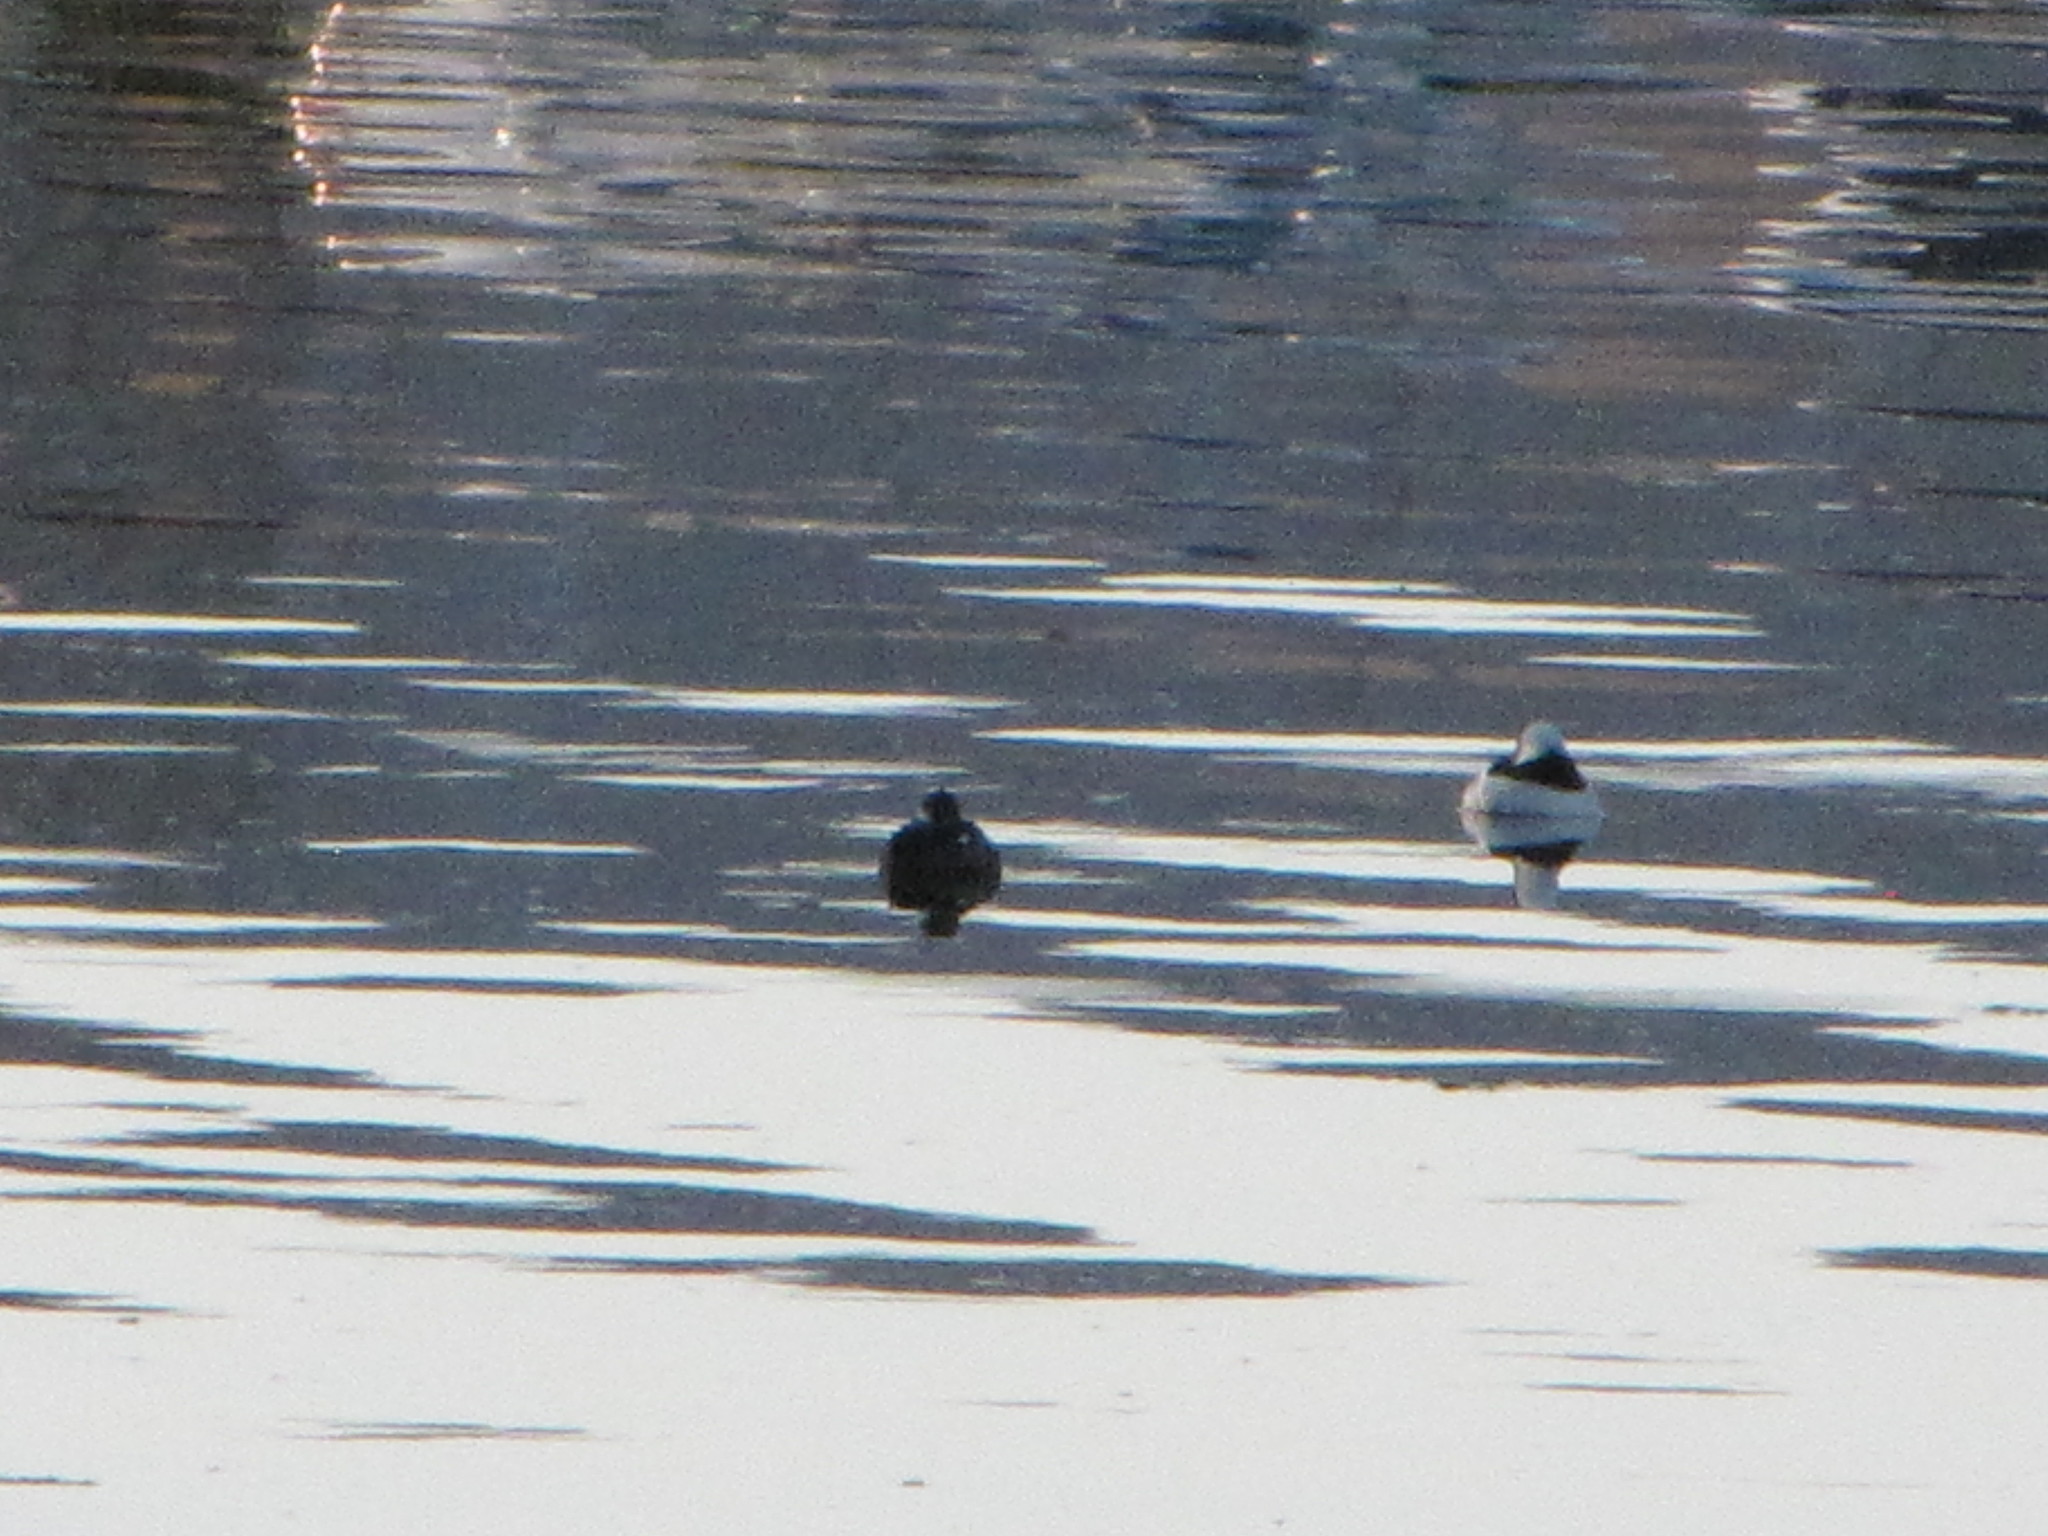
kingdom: Animalia
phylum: Chordata
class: Aves
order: Anseriformes
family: Anatidae
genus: Bucephala
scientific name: Bucephala albeola
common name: Bufflehead
